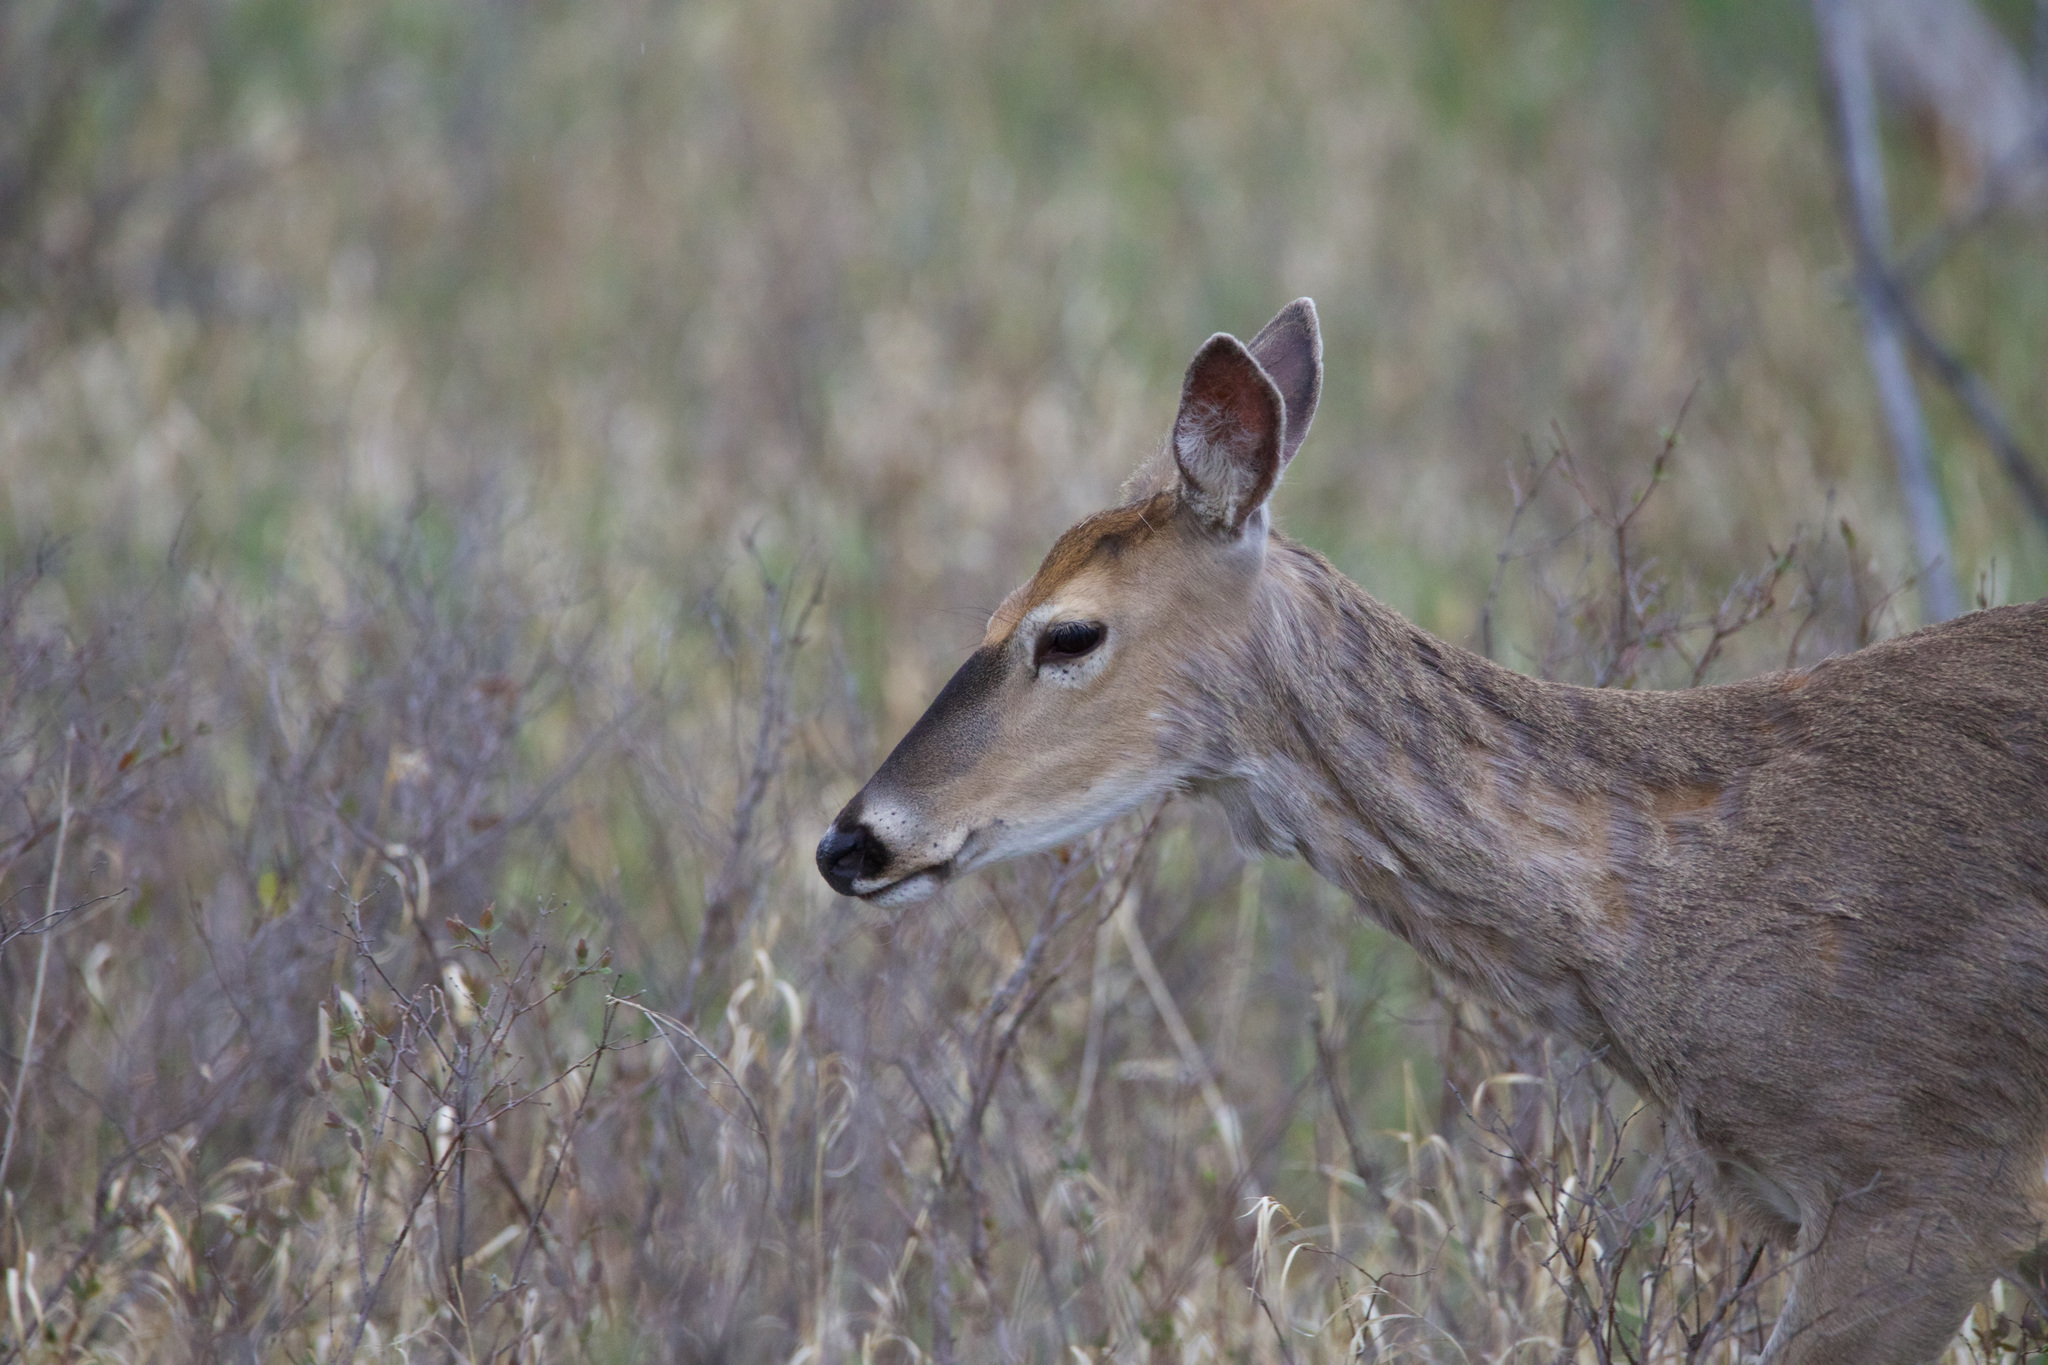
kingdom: Animalia
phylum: Chordata
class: Mammalia
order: Artiodactyla
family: Cervidae
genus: Odocoileus
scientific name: Odocoileus virginianus
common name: White-tailed deer
